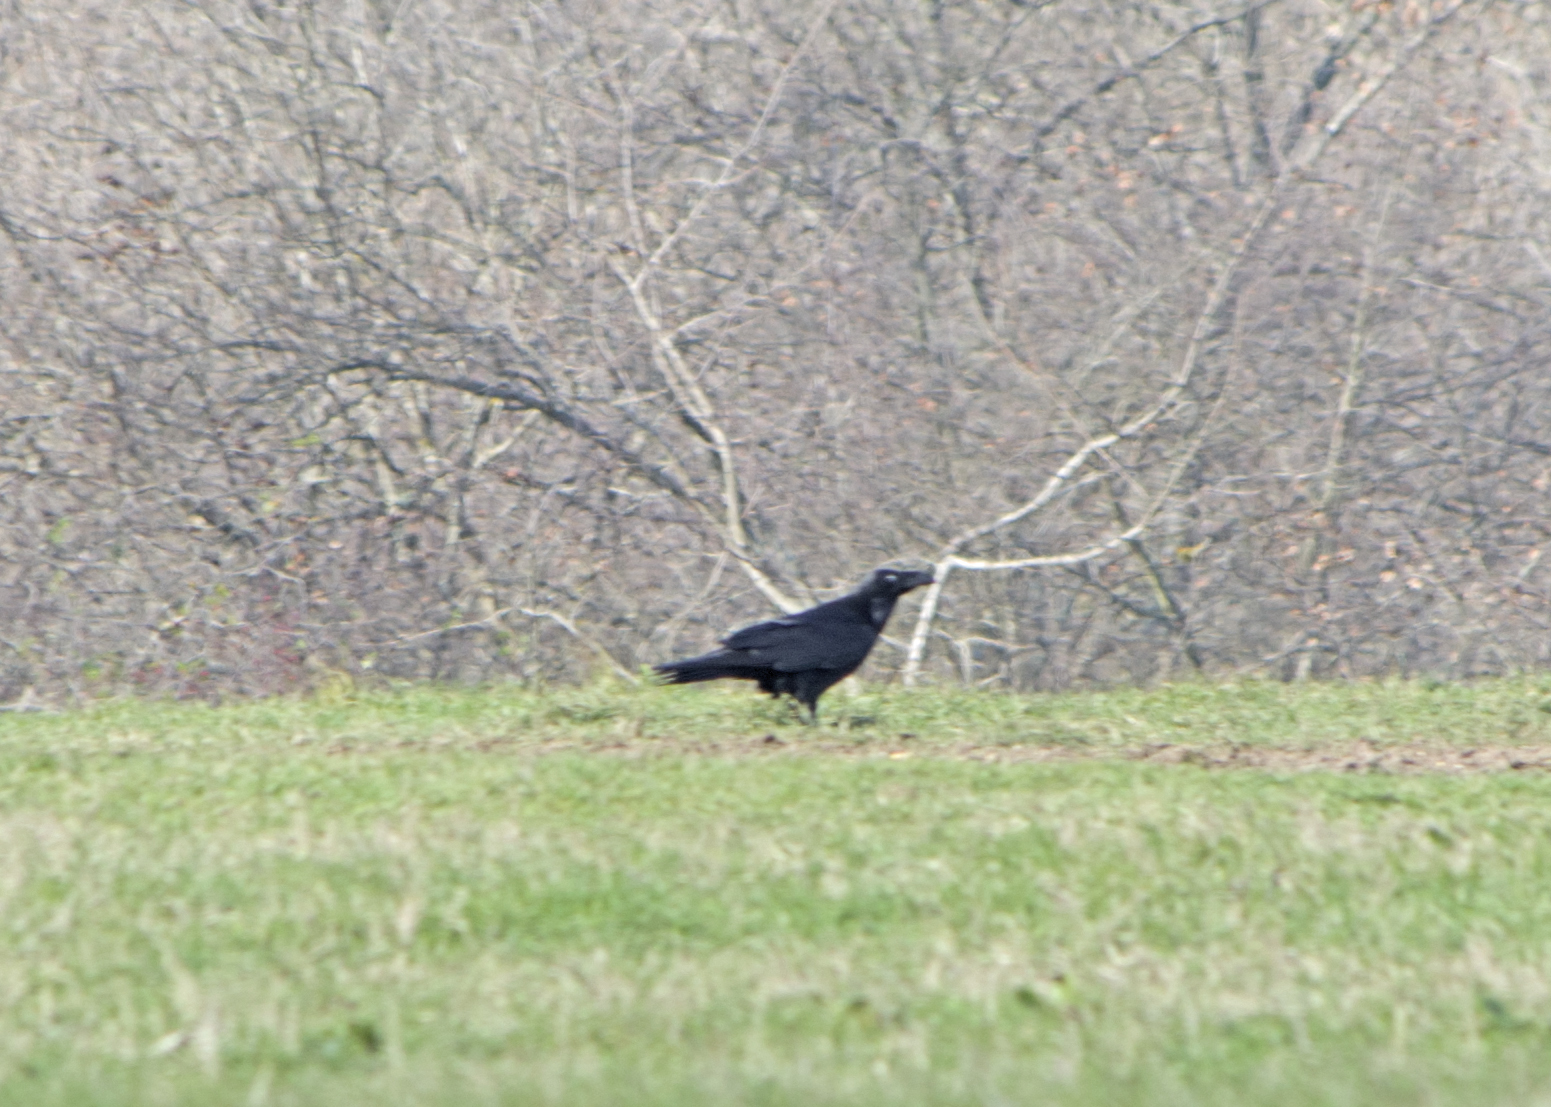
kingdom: Animalia
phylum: Chordata
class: Aves
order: Passeriformes
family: Corvidae
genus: Corvus
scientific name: Corvus corax
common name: Common raven
